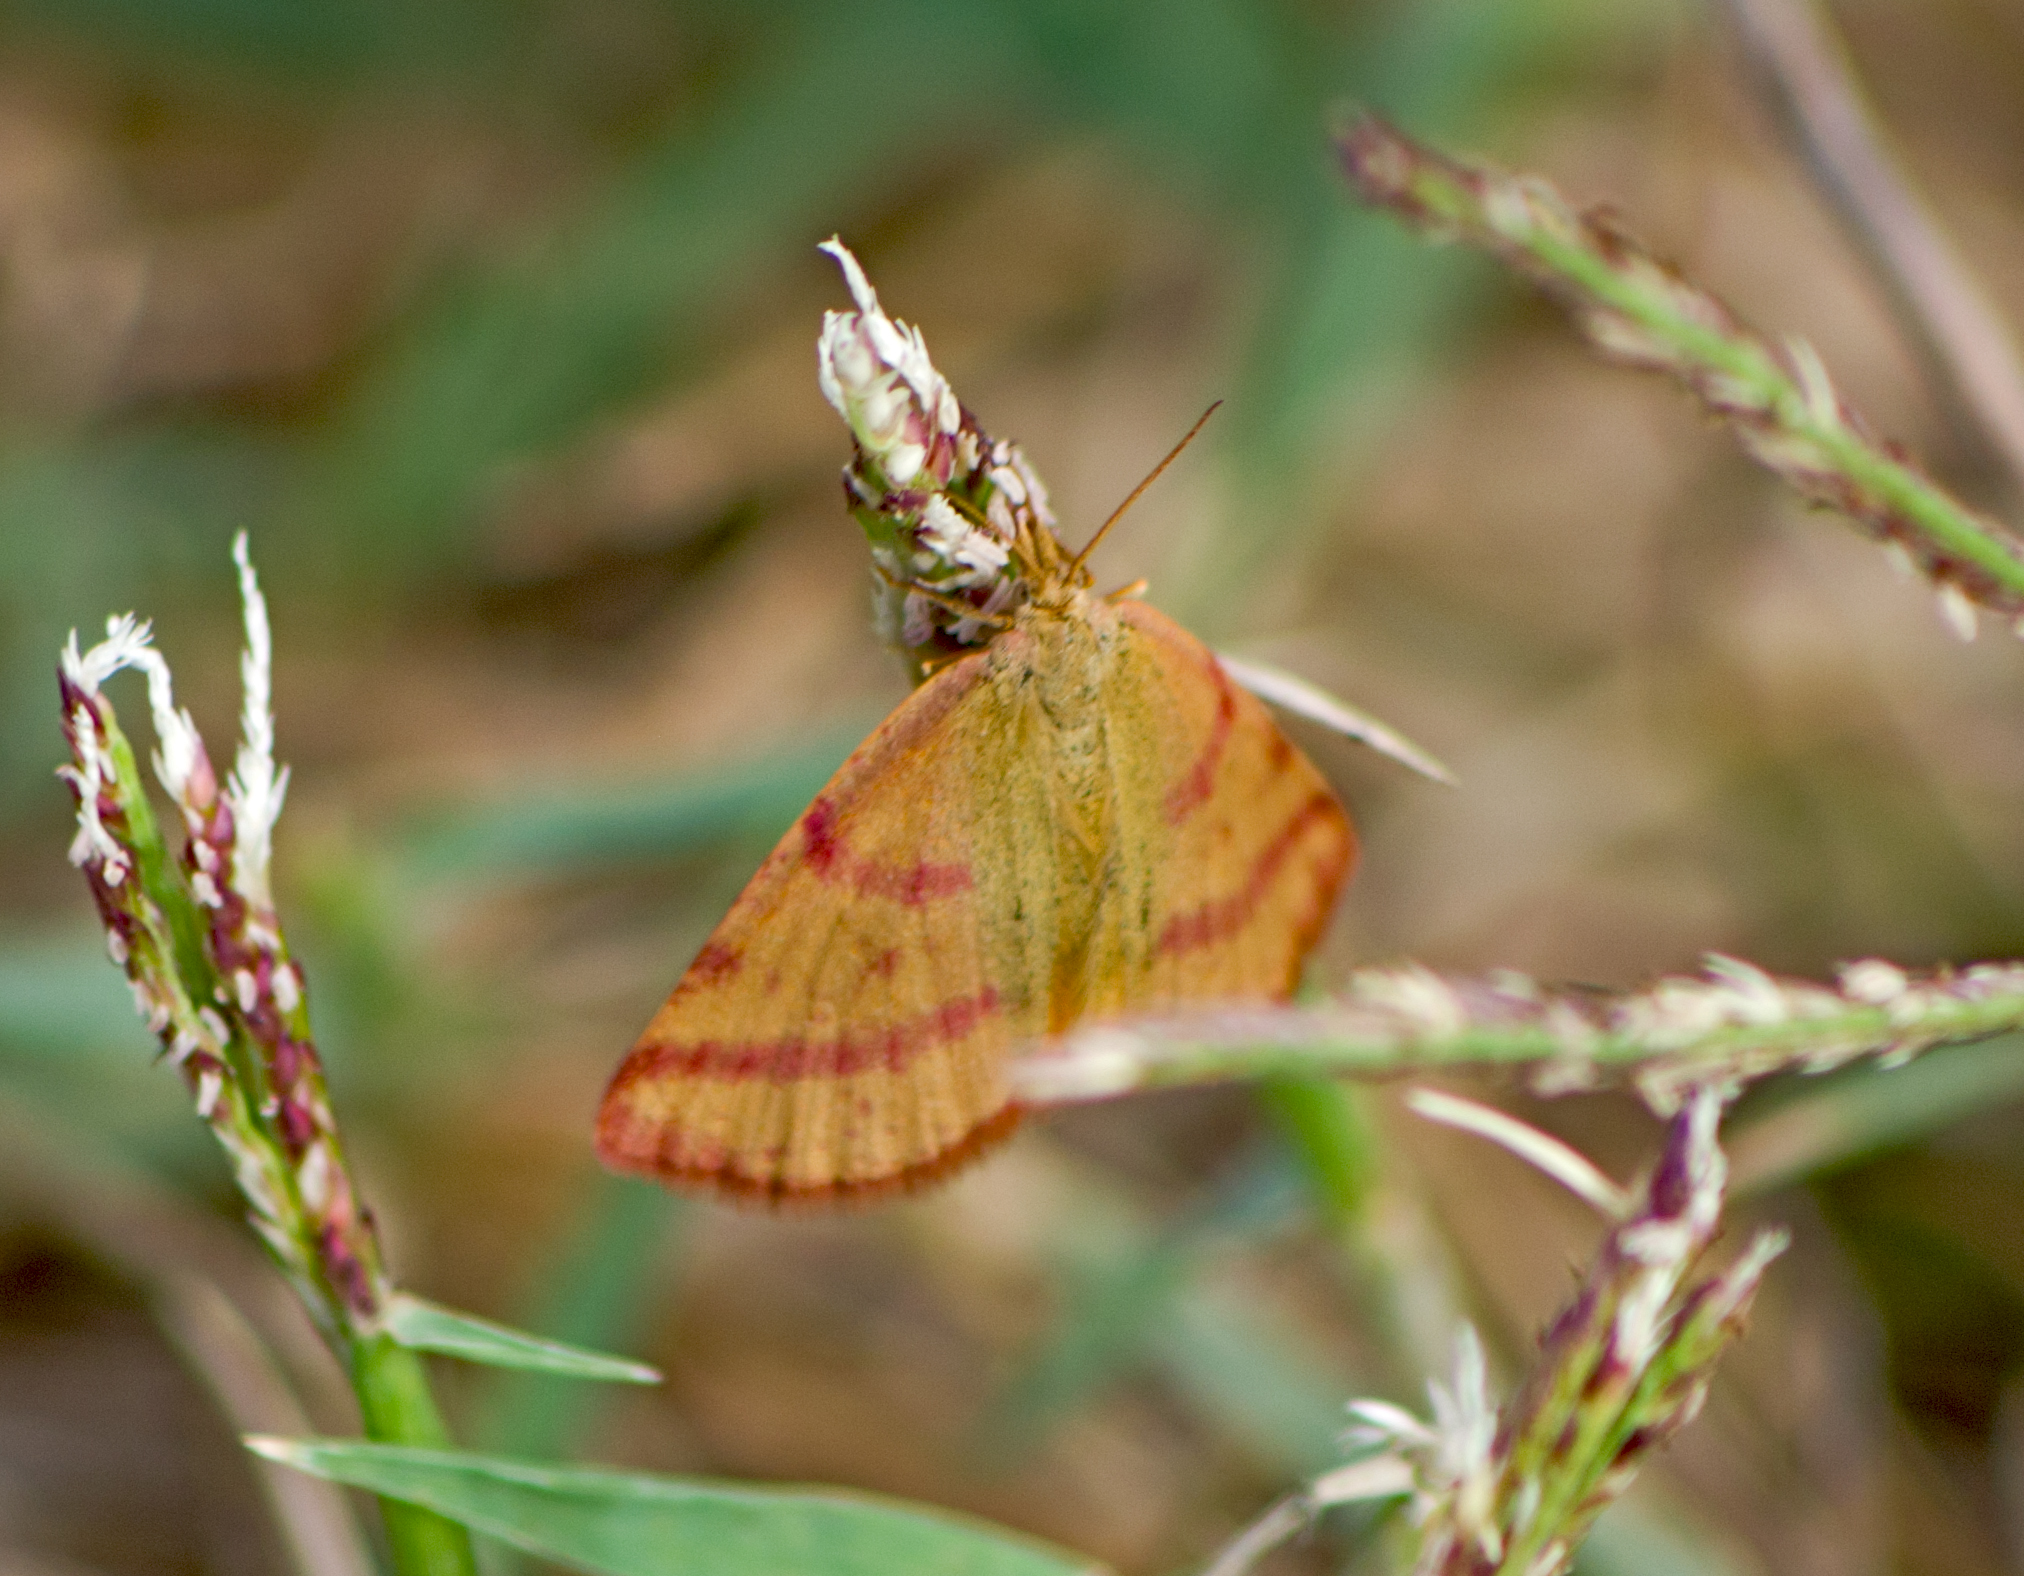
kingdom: Animalia
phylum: Arthropoda
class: Insecta
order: Lepidoptera
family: Geometridae
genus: Lythria
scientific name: Lythria purpuraria
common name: Purple-barred yellow
